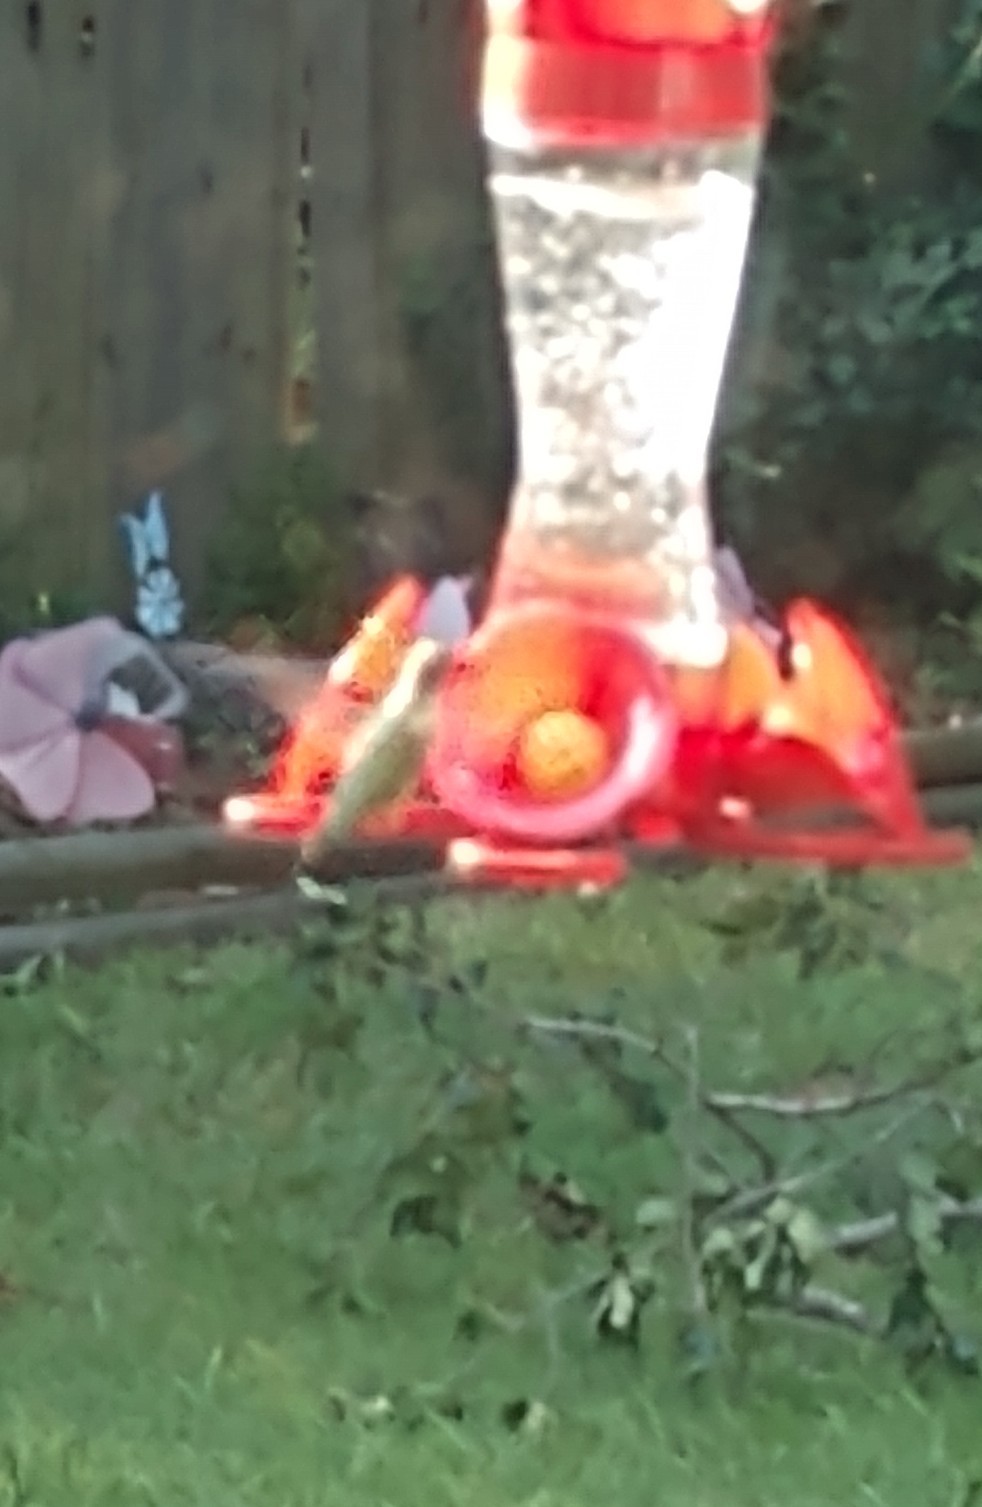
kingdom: Animalia
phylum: Chordata
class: Aves
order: Apodiformes
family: Trochilidae
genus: Archilochus
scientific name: Archilochus colubris
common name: Ruby-throated hummingbird
